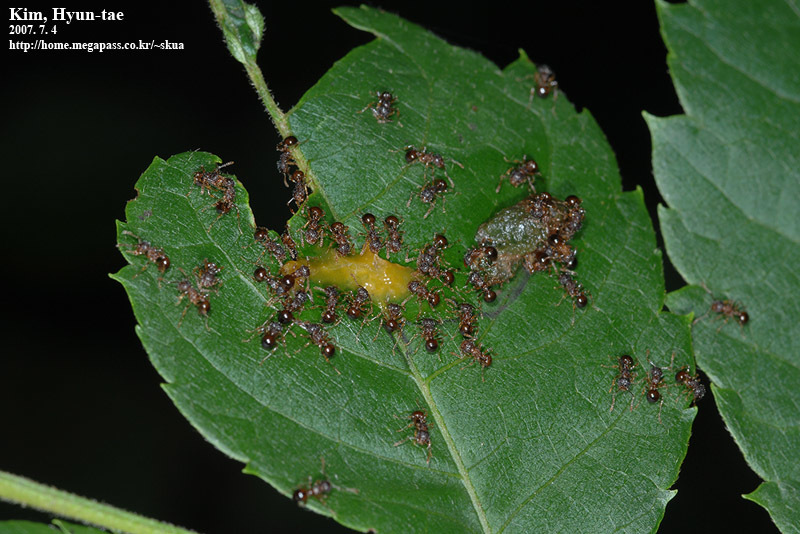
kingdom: Animalia
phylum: Arthropoda
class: Insecta
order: Hymenoptera
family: Formicidae
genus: Pristomyrmex
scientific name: Pristomyrmex punctatus
